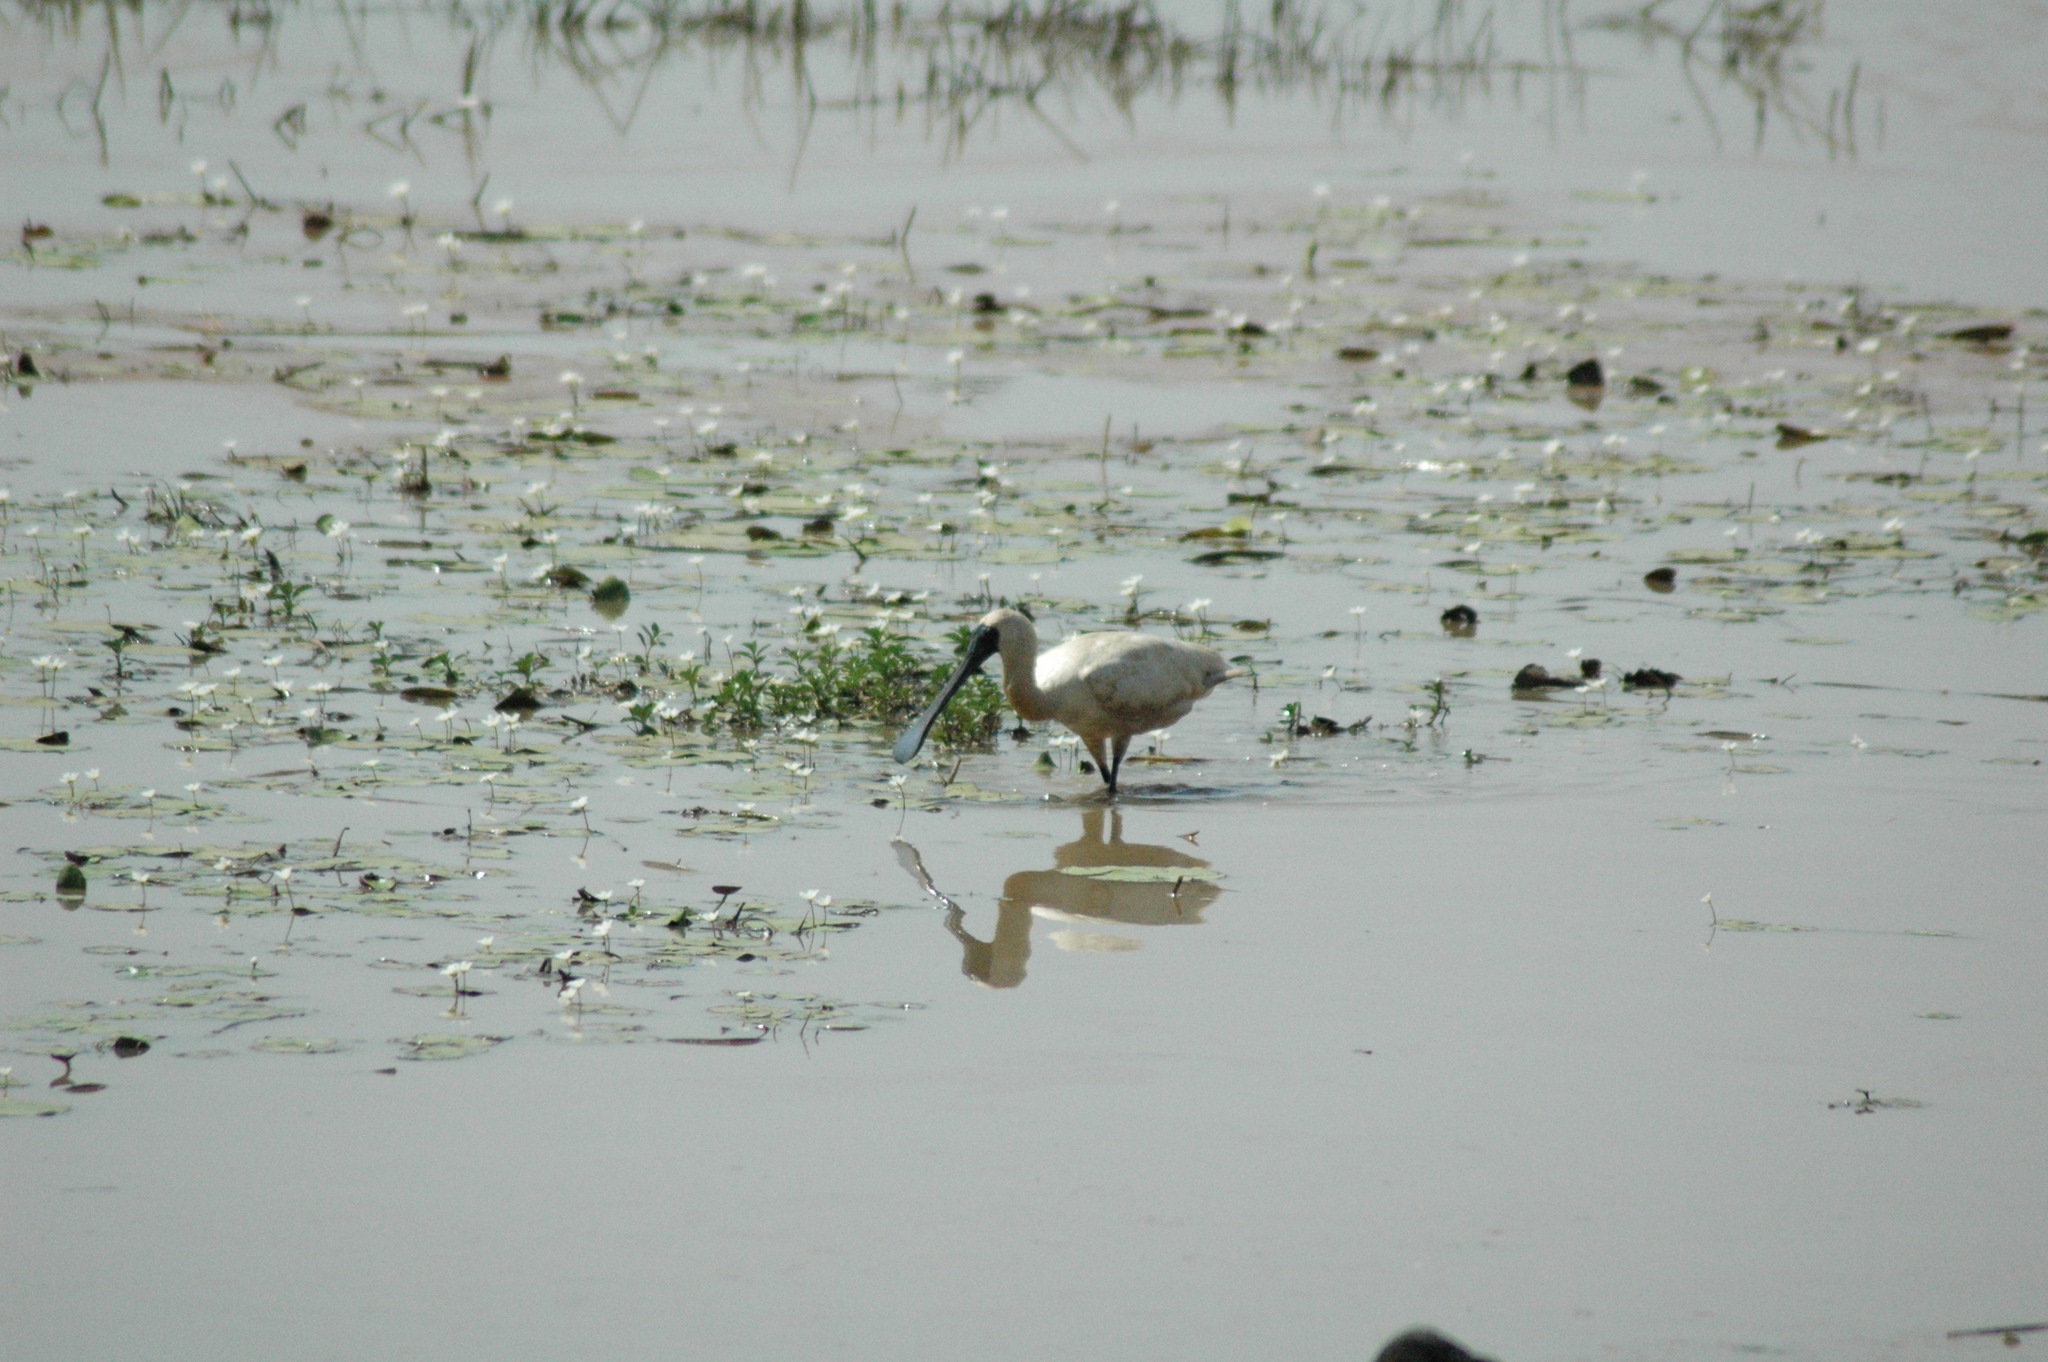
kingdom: Animalia
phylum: Chordata
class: Aves
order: Pelecaniformes
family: Threskiornithidae
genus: Platalea
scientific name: Platalea regia
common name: Royal spoonbill
